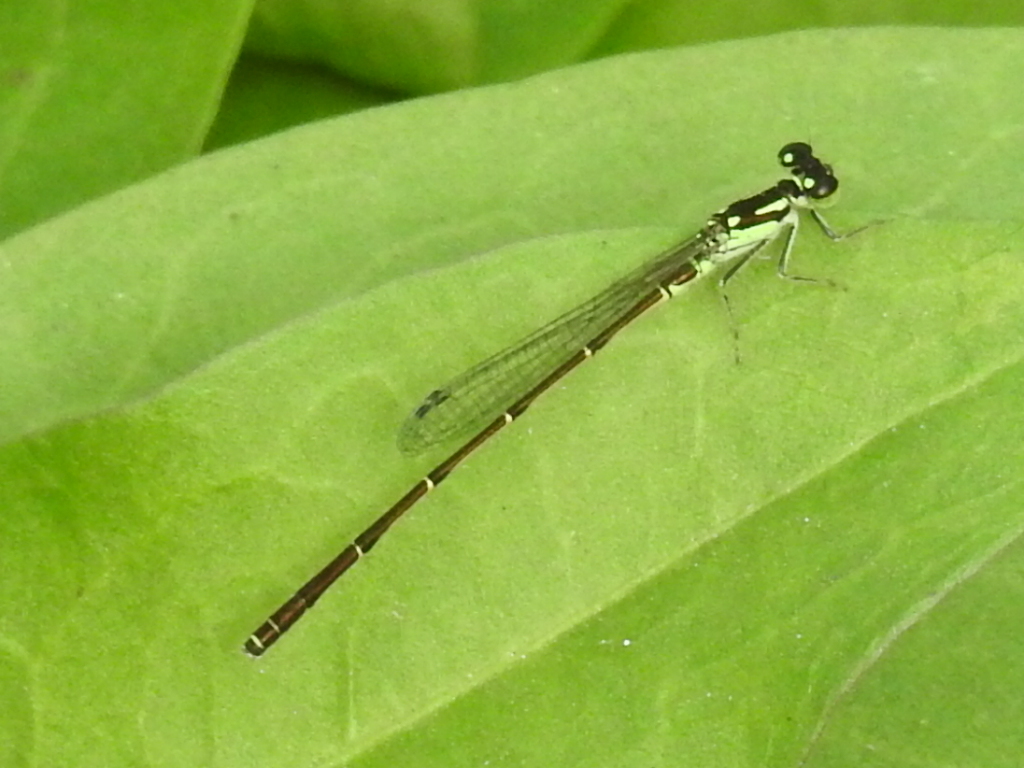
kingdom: Animalia
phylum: Arthropoda
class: Insecta
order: Odonata
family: Coenagrionidae
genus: Ischnura
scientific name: Ischnura posita
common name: Fragile forktail
